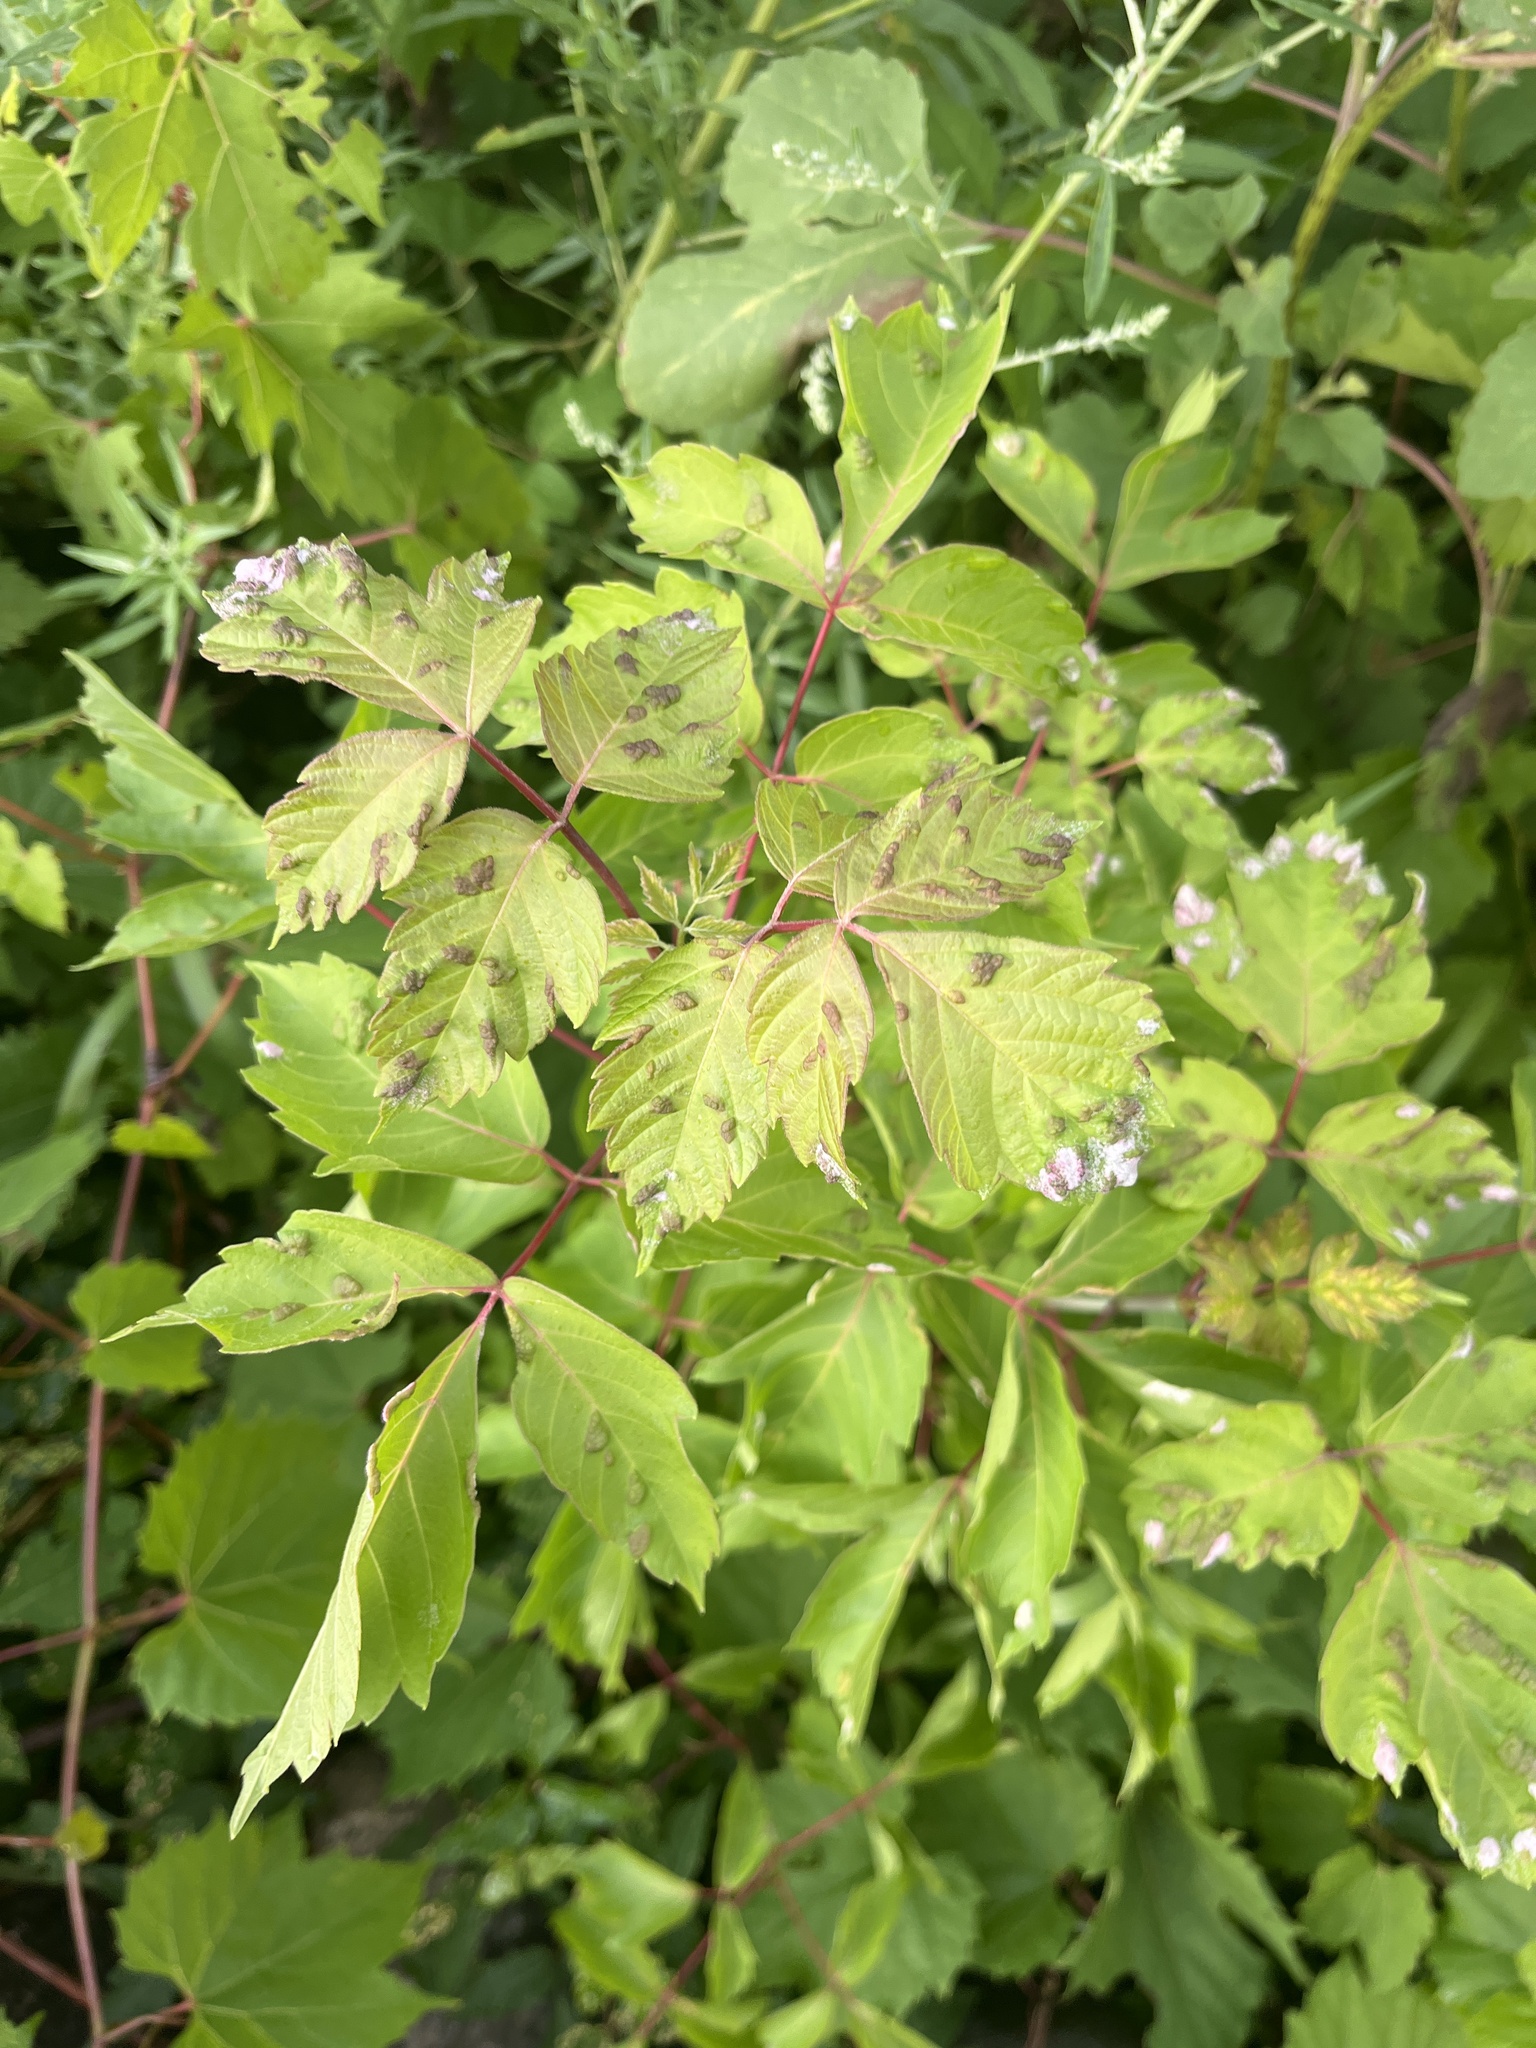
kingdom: Animalia
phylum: Arthropoda
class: Arachnida
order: Trombidiformes
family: Eriophyidae
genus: Aceria
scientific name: Aceria
